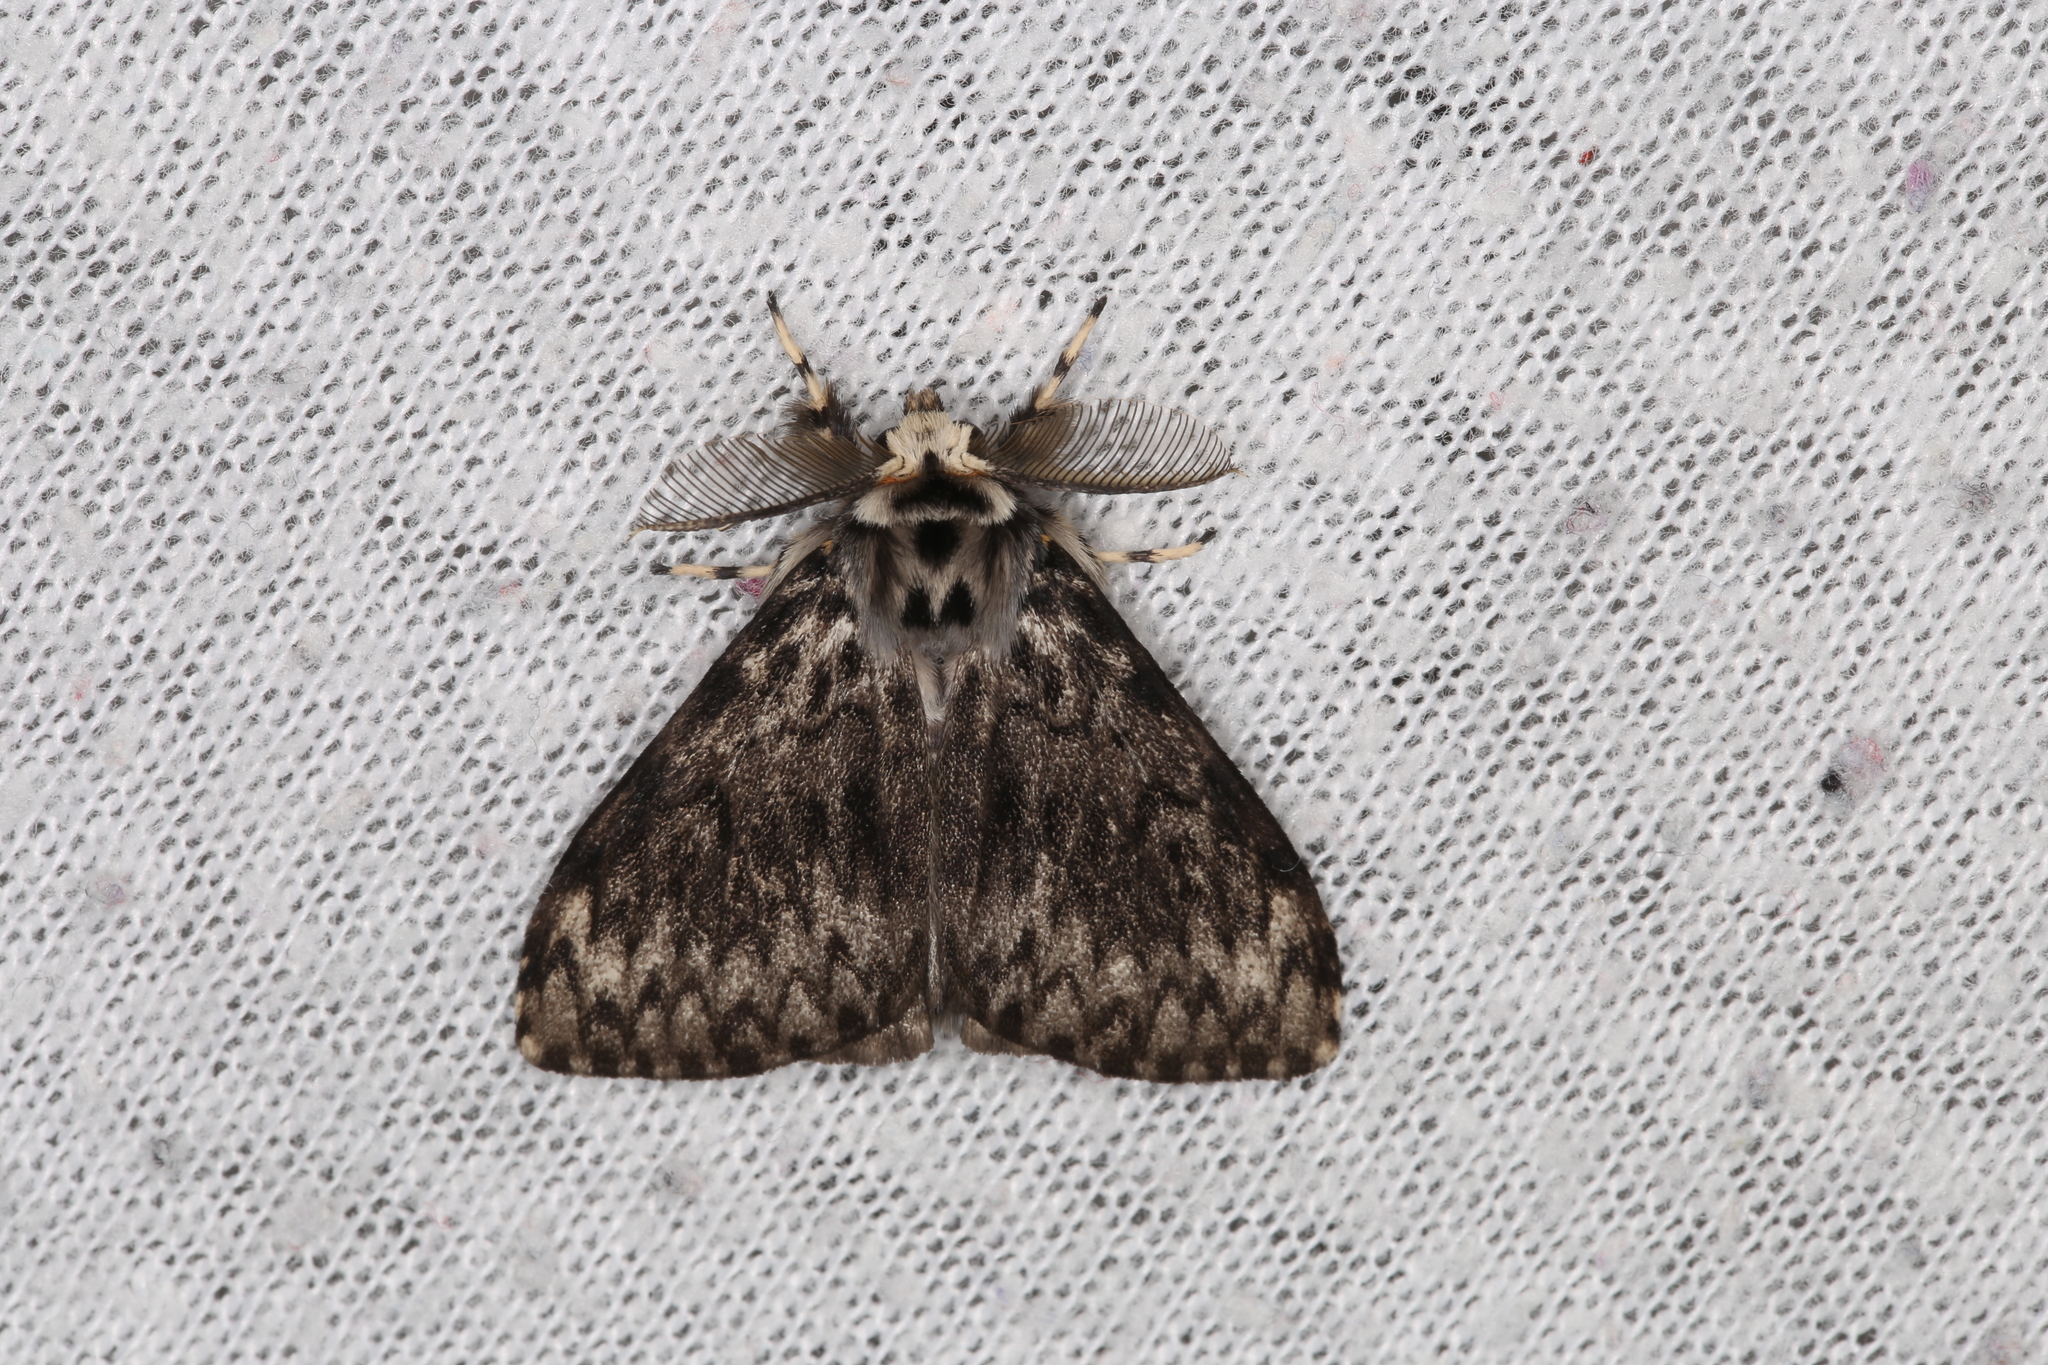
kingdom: Animalia
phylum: Arthropoda
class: Insecta
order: Lepidoptera
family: Erebidae
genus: Lymantria
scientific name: Lymantria monacha
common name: Black arches
